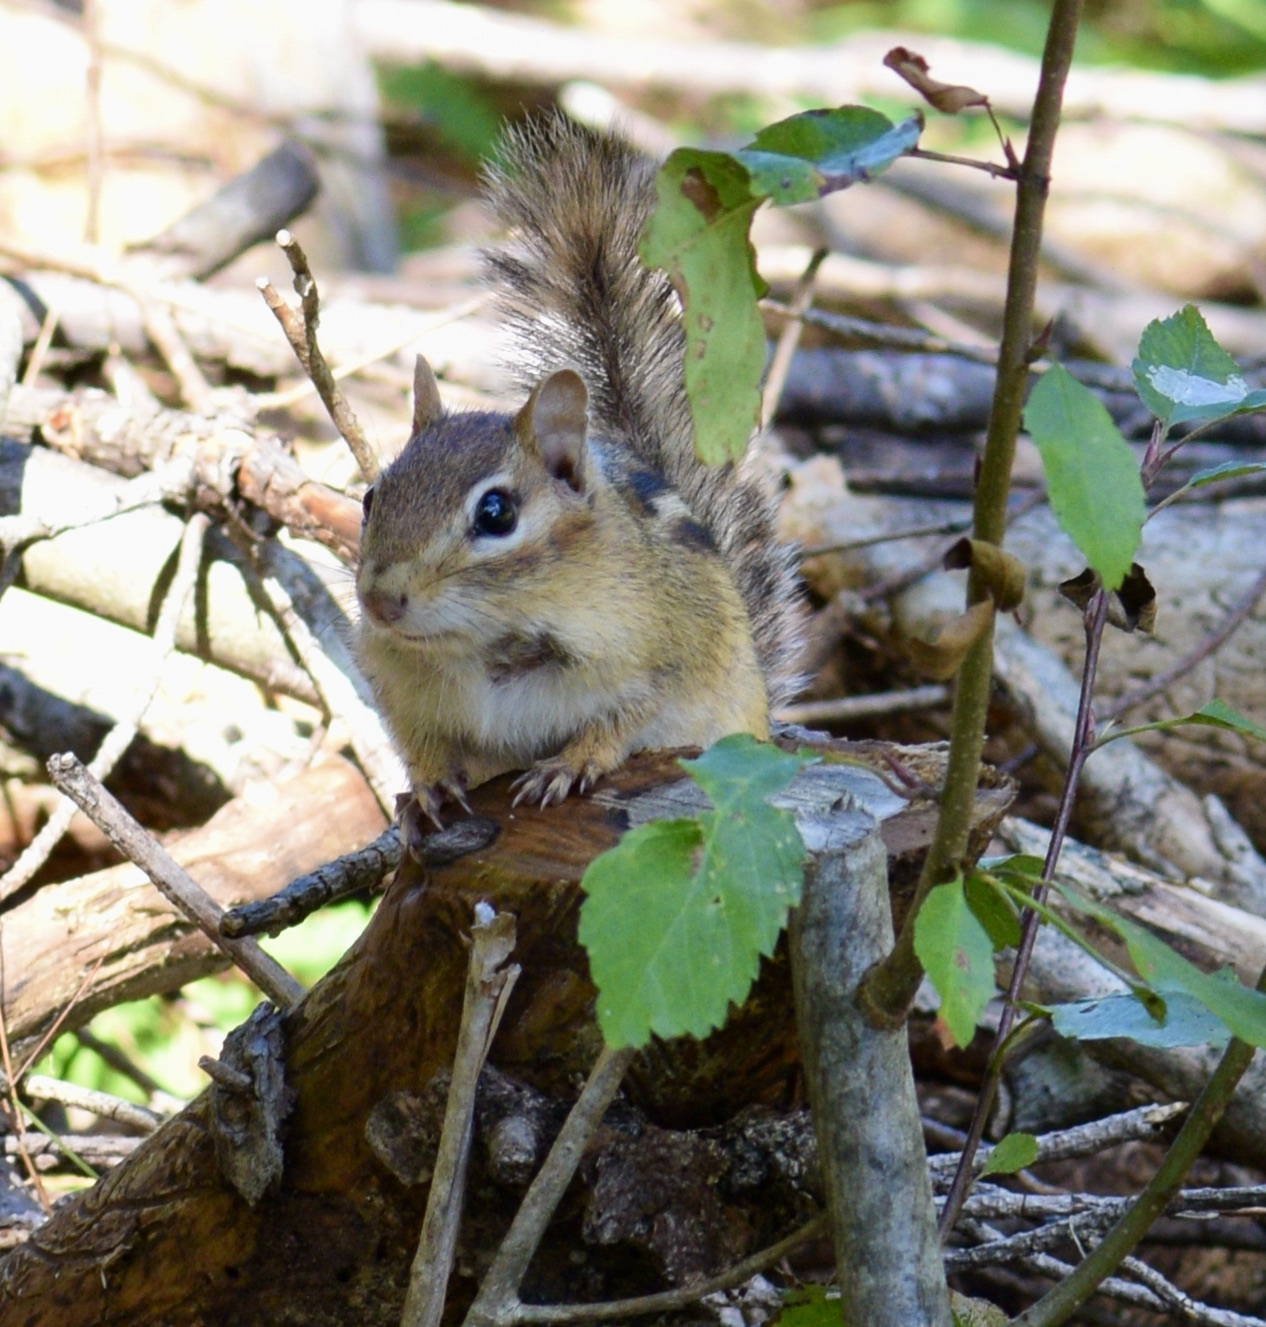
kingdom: Animalia
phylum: Chordata
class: Mammalia
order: Rodentia
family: Sciuridae
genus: Tamias
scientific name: Tamias striatus
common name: Eastern chipmunk
